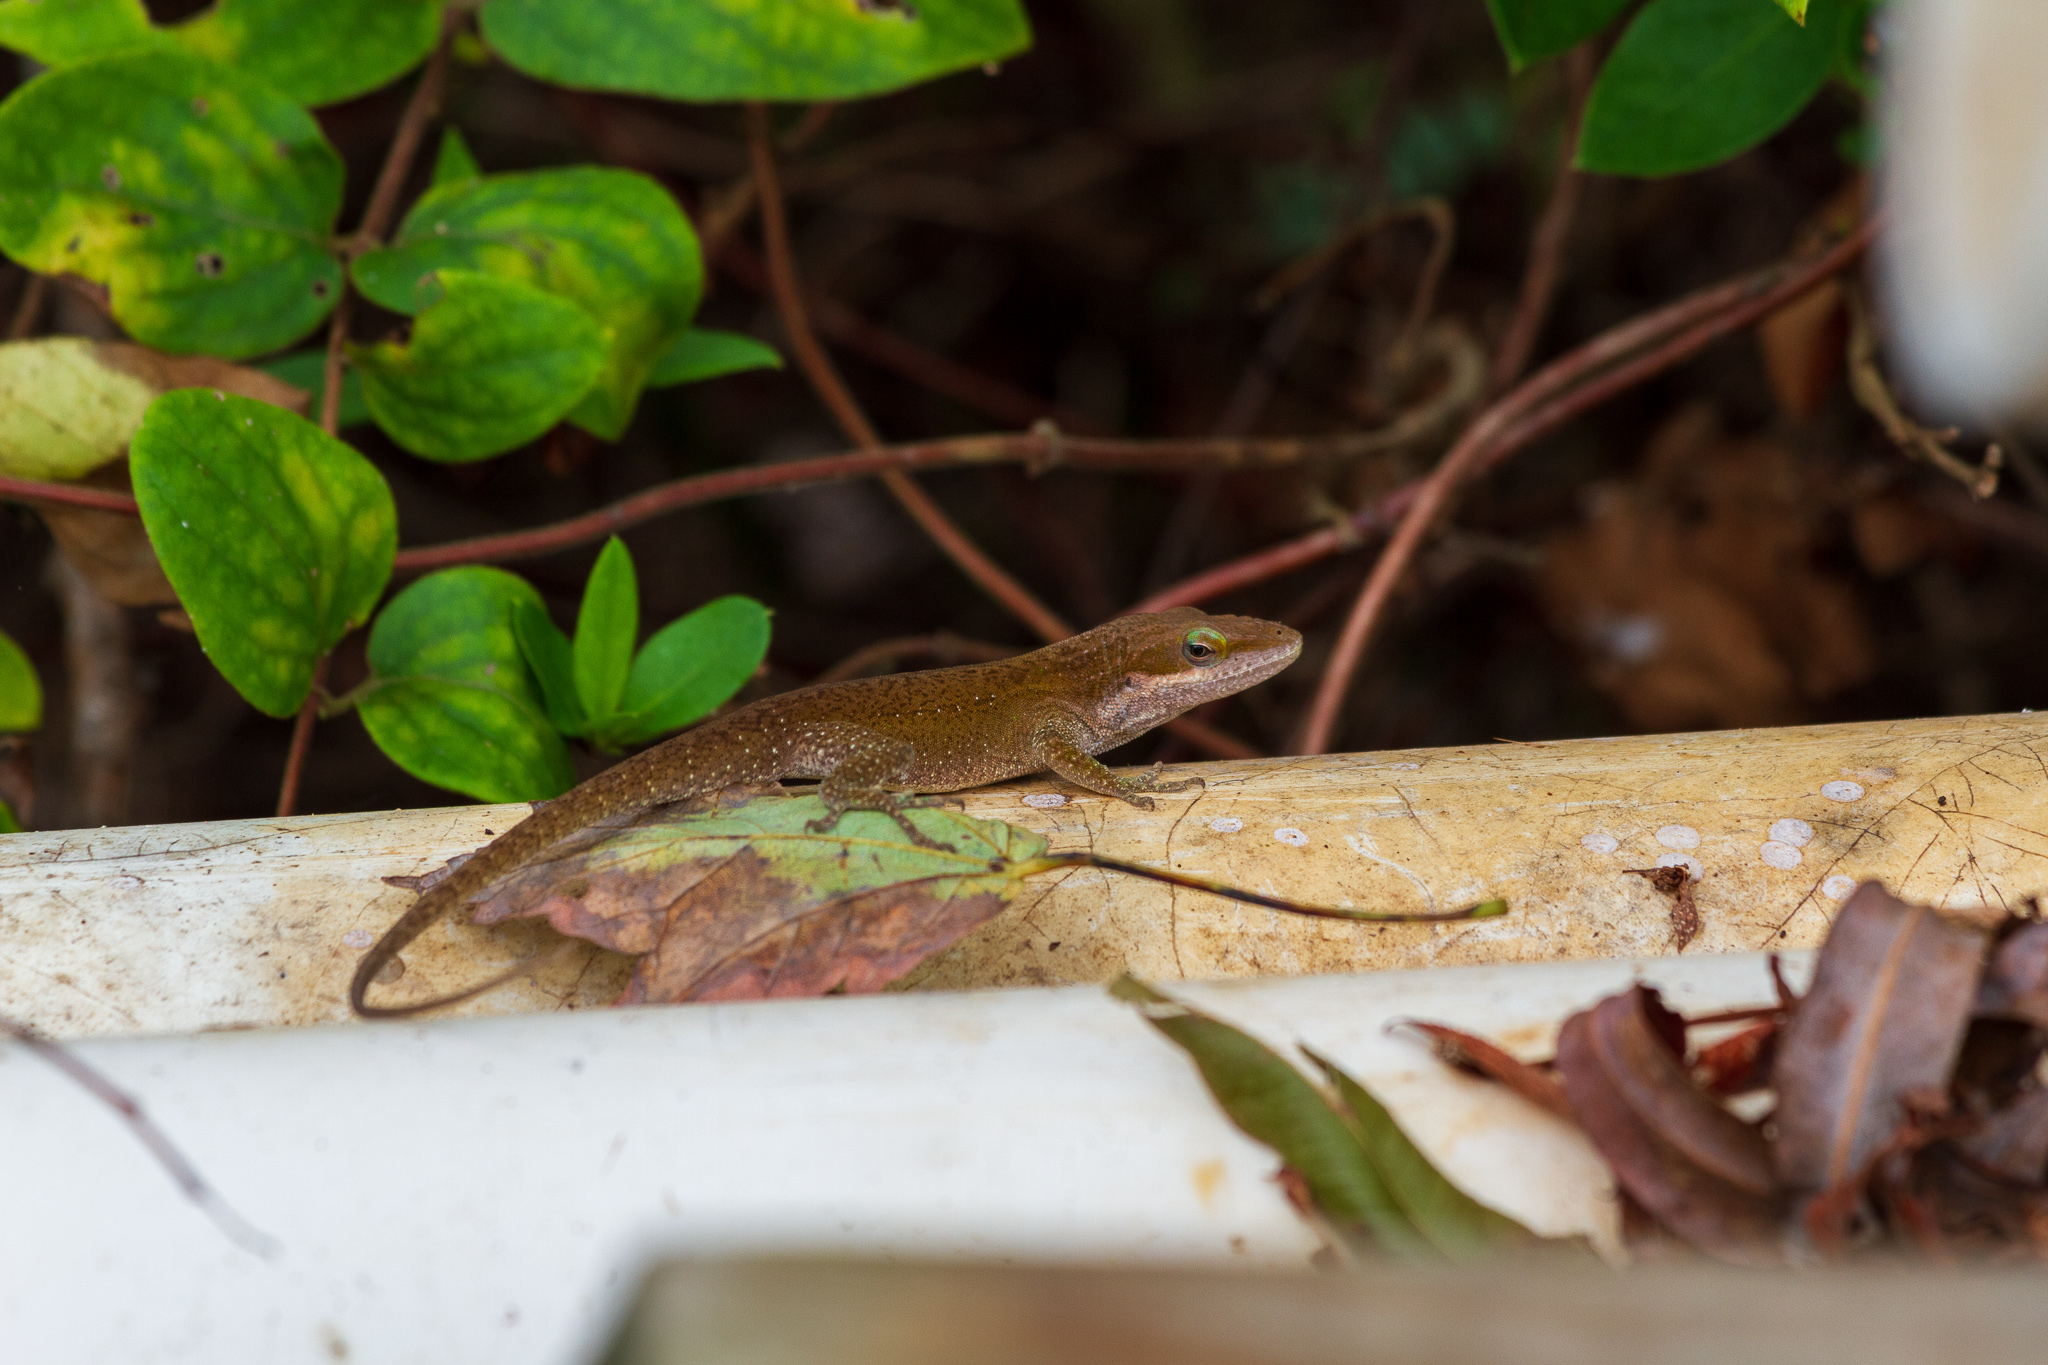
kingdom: Animalia
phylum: Chordata
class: Squamata
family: Dactyloidae
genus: Anolis
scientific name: Anolis carolinensis
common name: Green anole
